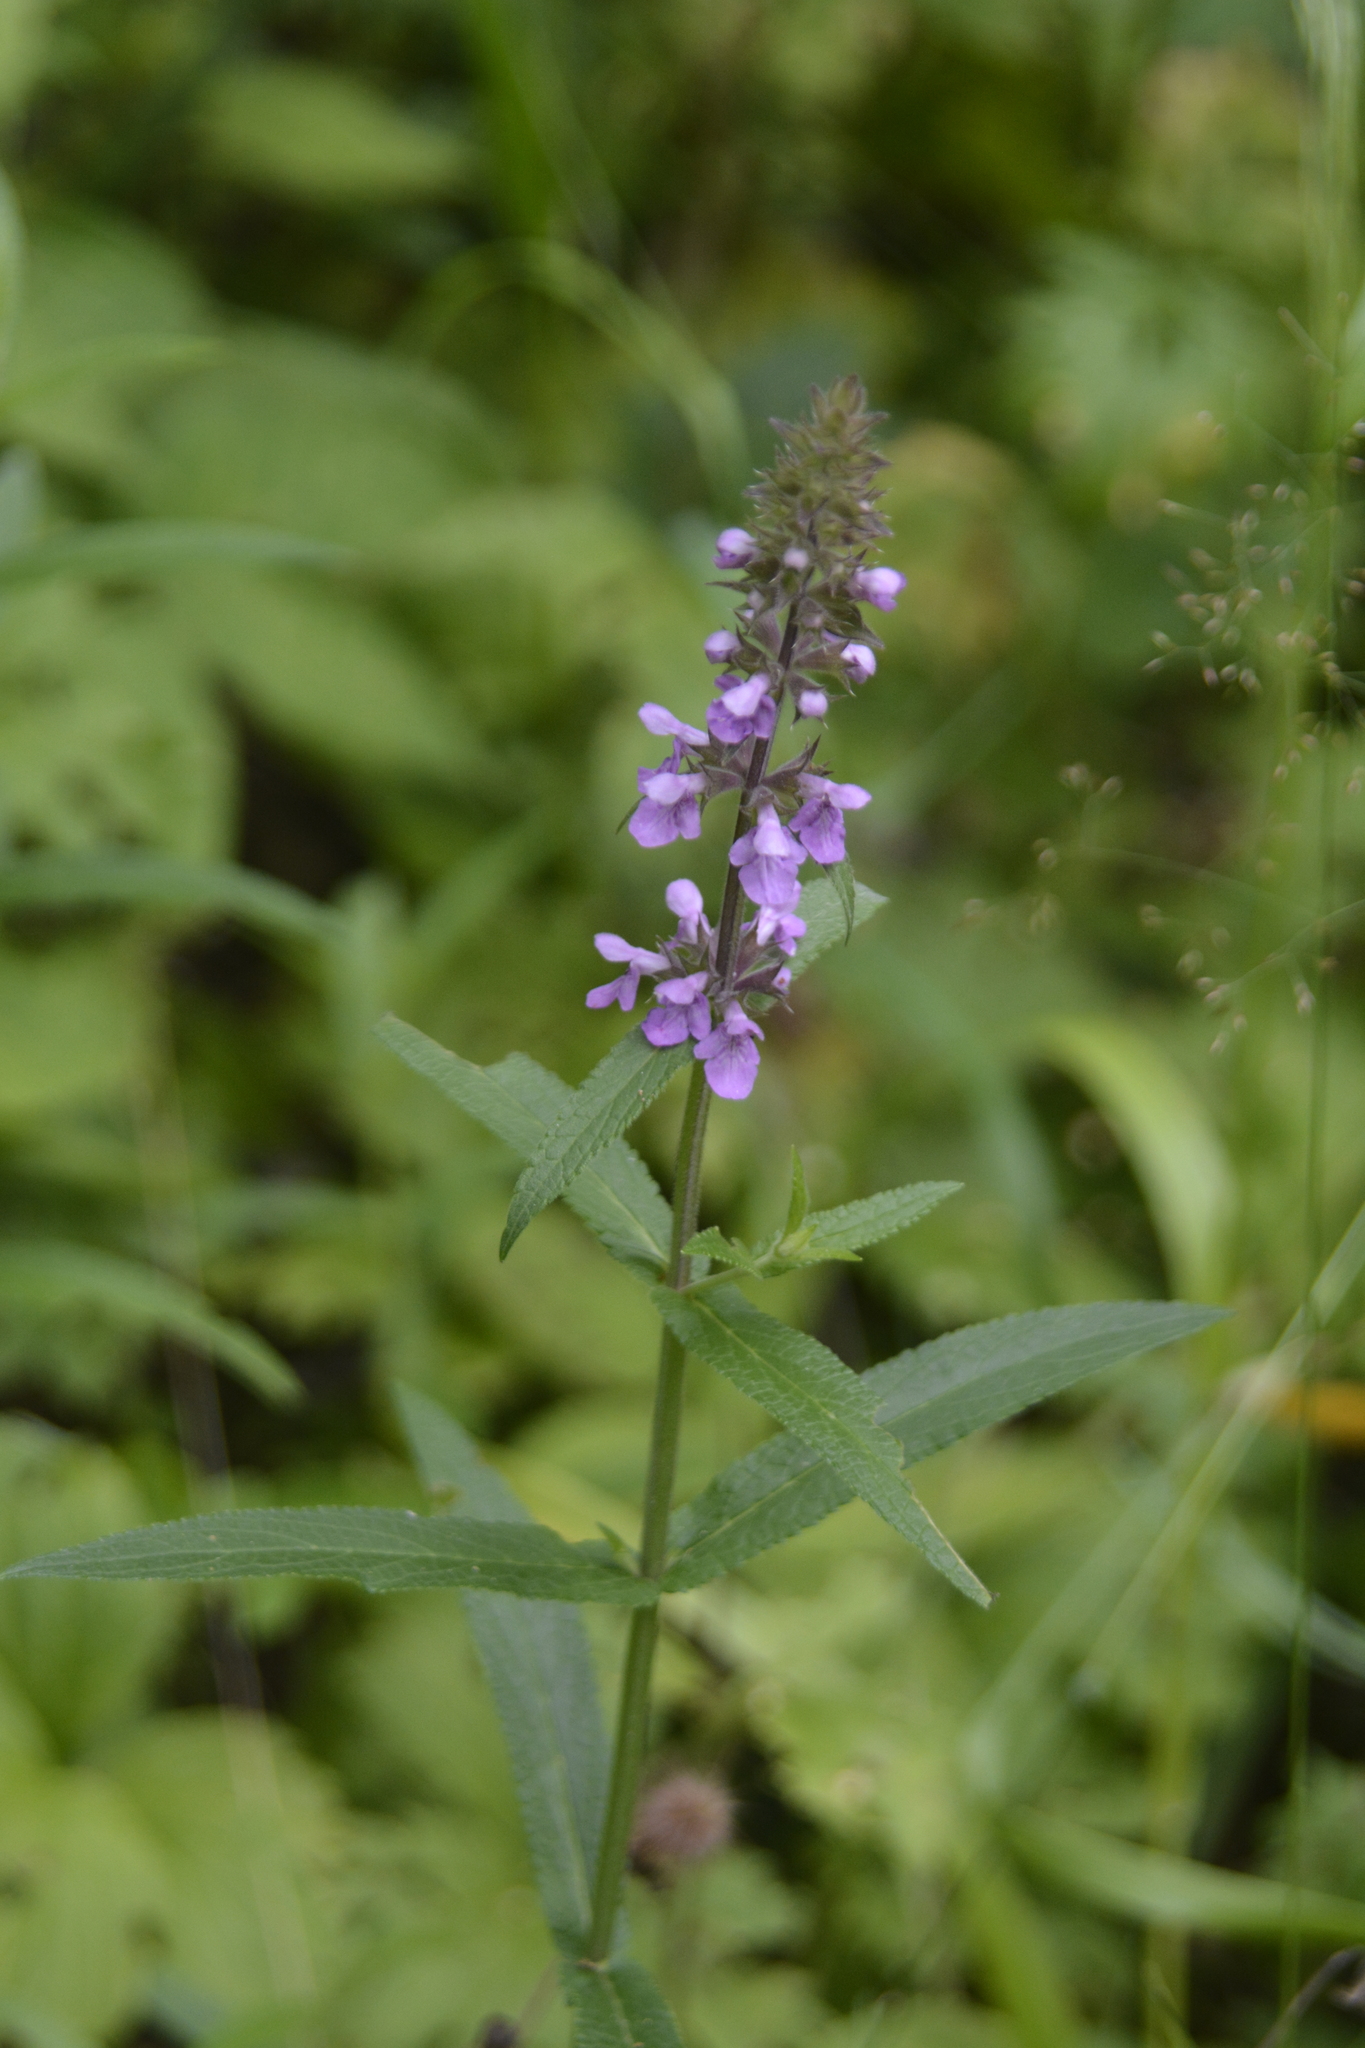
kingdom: Plantae
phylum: Tracheophyta
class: Magnoliopsida
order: Lamiales
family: Lamiaceae
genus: Stachys
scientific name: Stachys palustris
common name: Marsh woundwort
